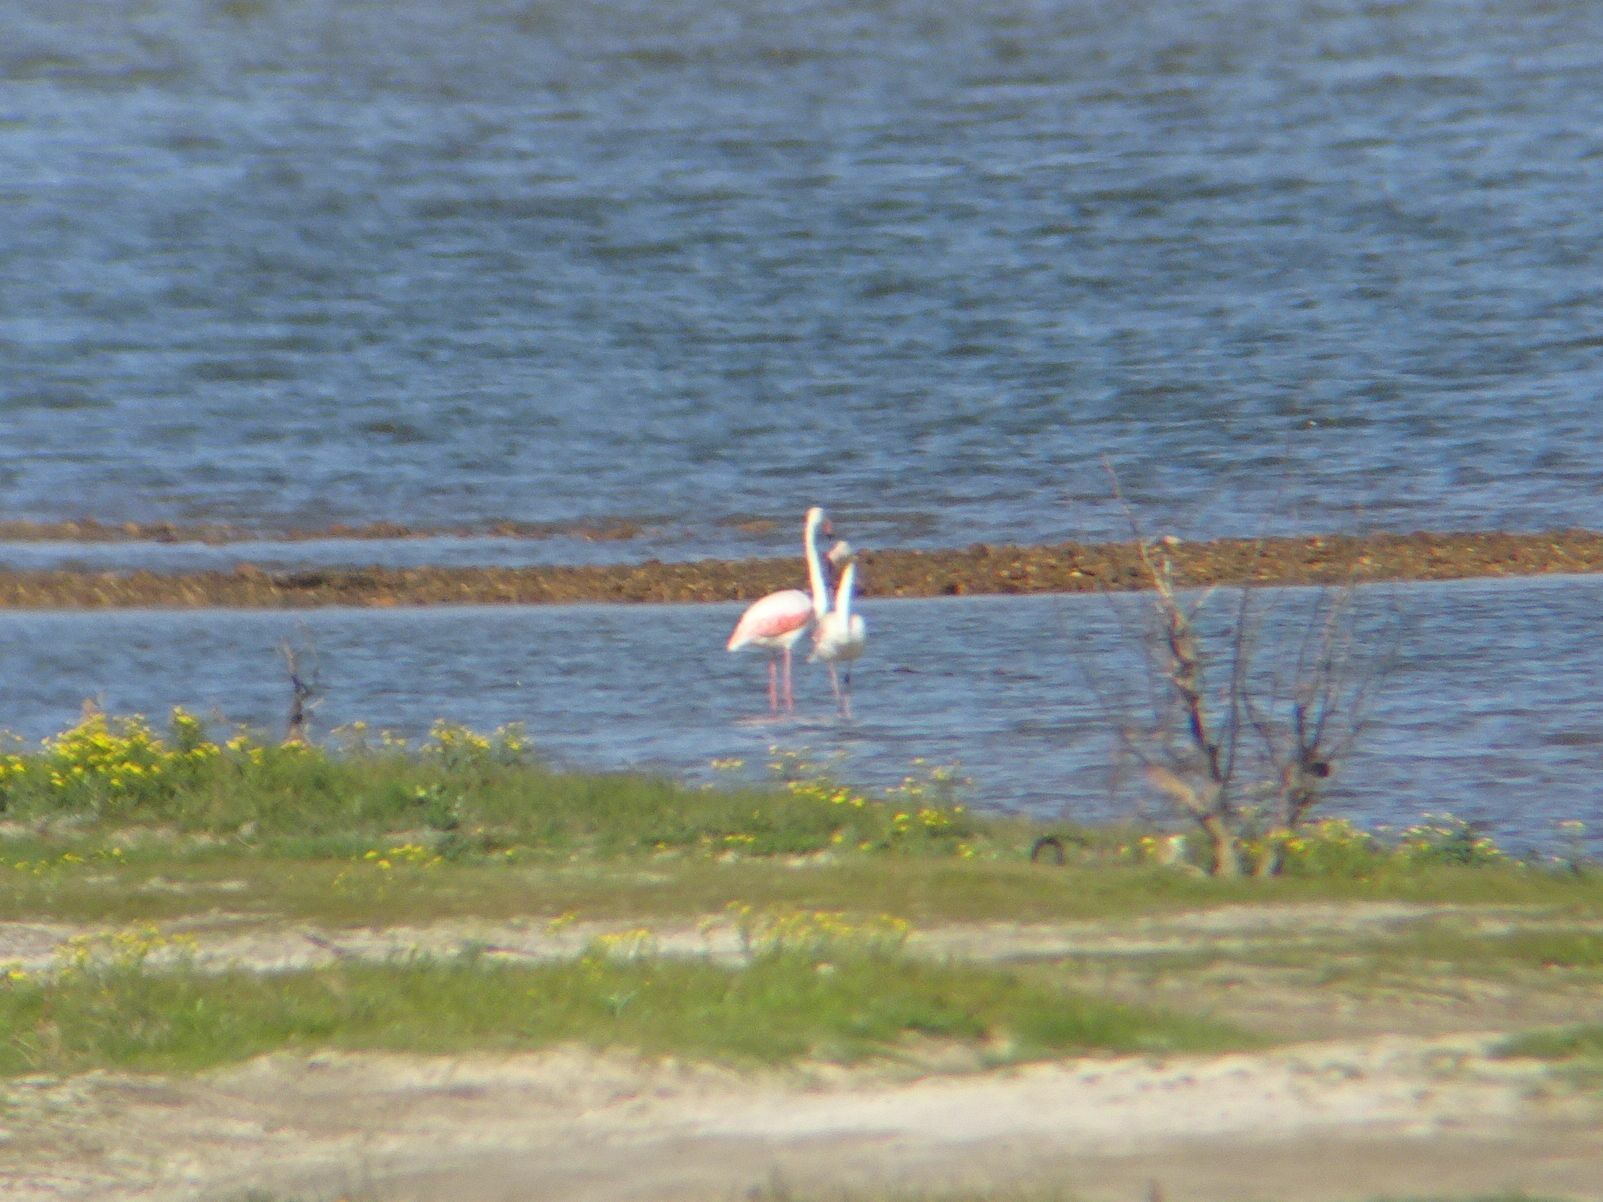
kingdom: Animalia
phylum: Chordata
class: Aves
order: Phoenicopteriformes
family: Phoenicopteridae
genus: Phoenicopterus
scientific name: Phoenicopterus roseus
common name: Greater flamingo
